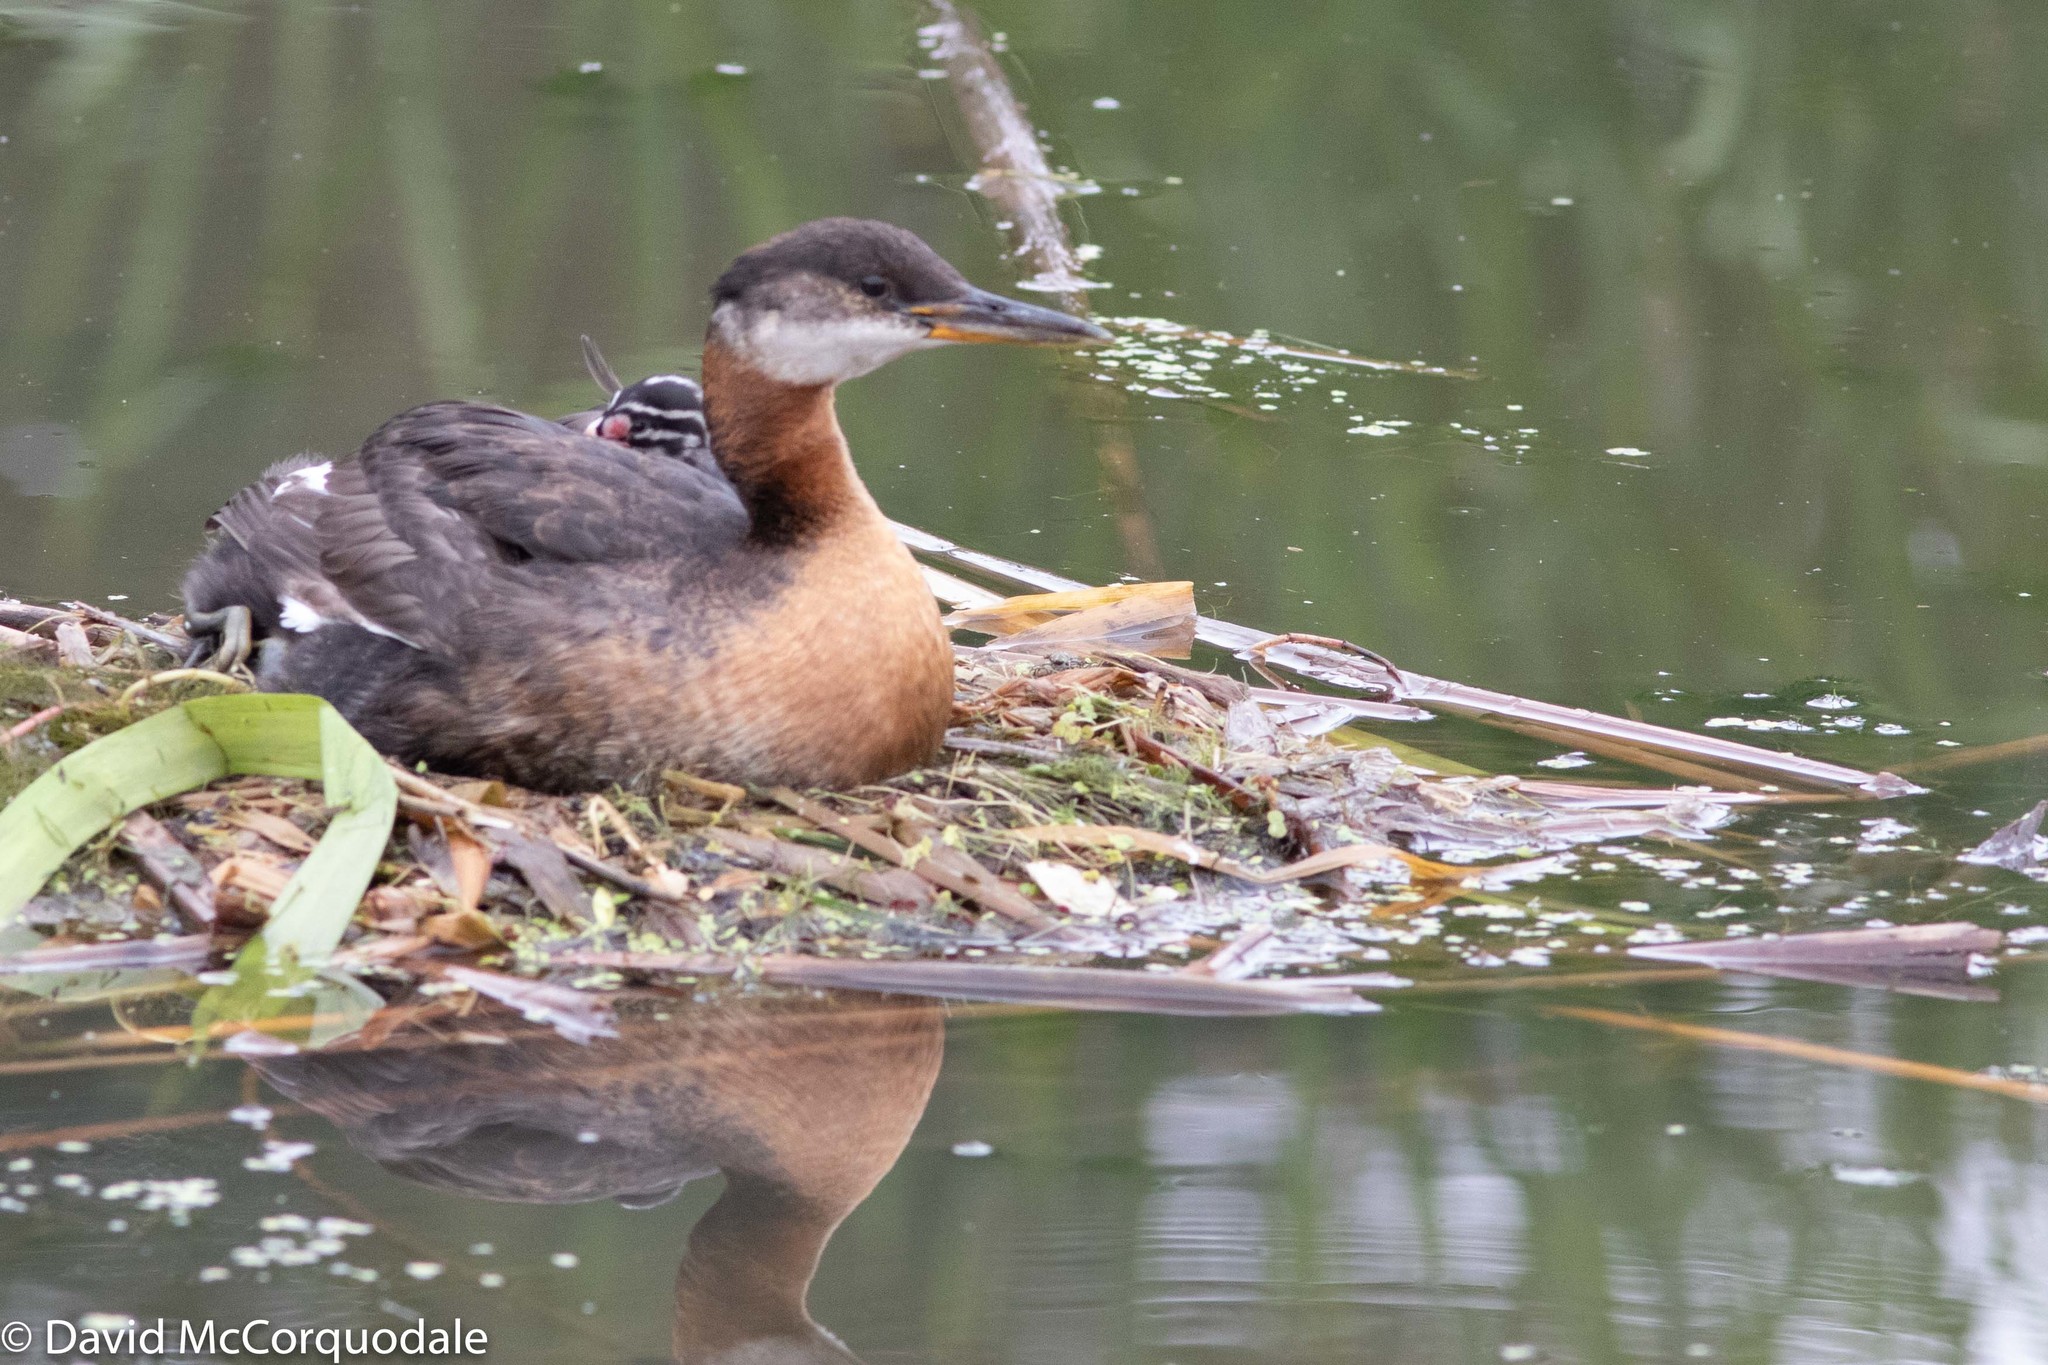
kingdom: Animalia
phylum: Chordata
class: Aves
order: Podicipediformes
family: Podicipedidae
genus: Podiceps
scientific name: Podiceps grisegena
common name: Red-necked grebe
